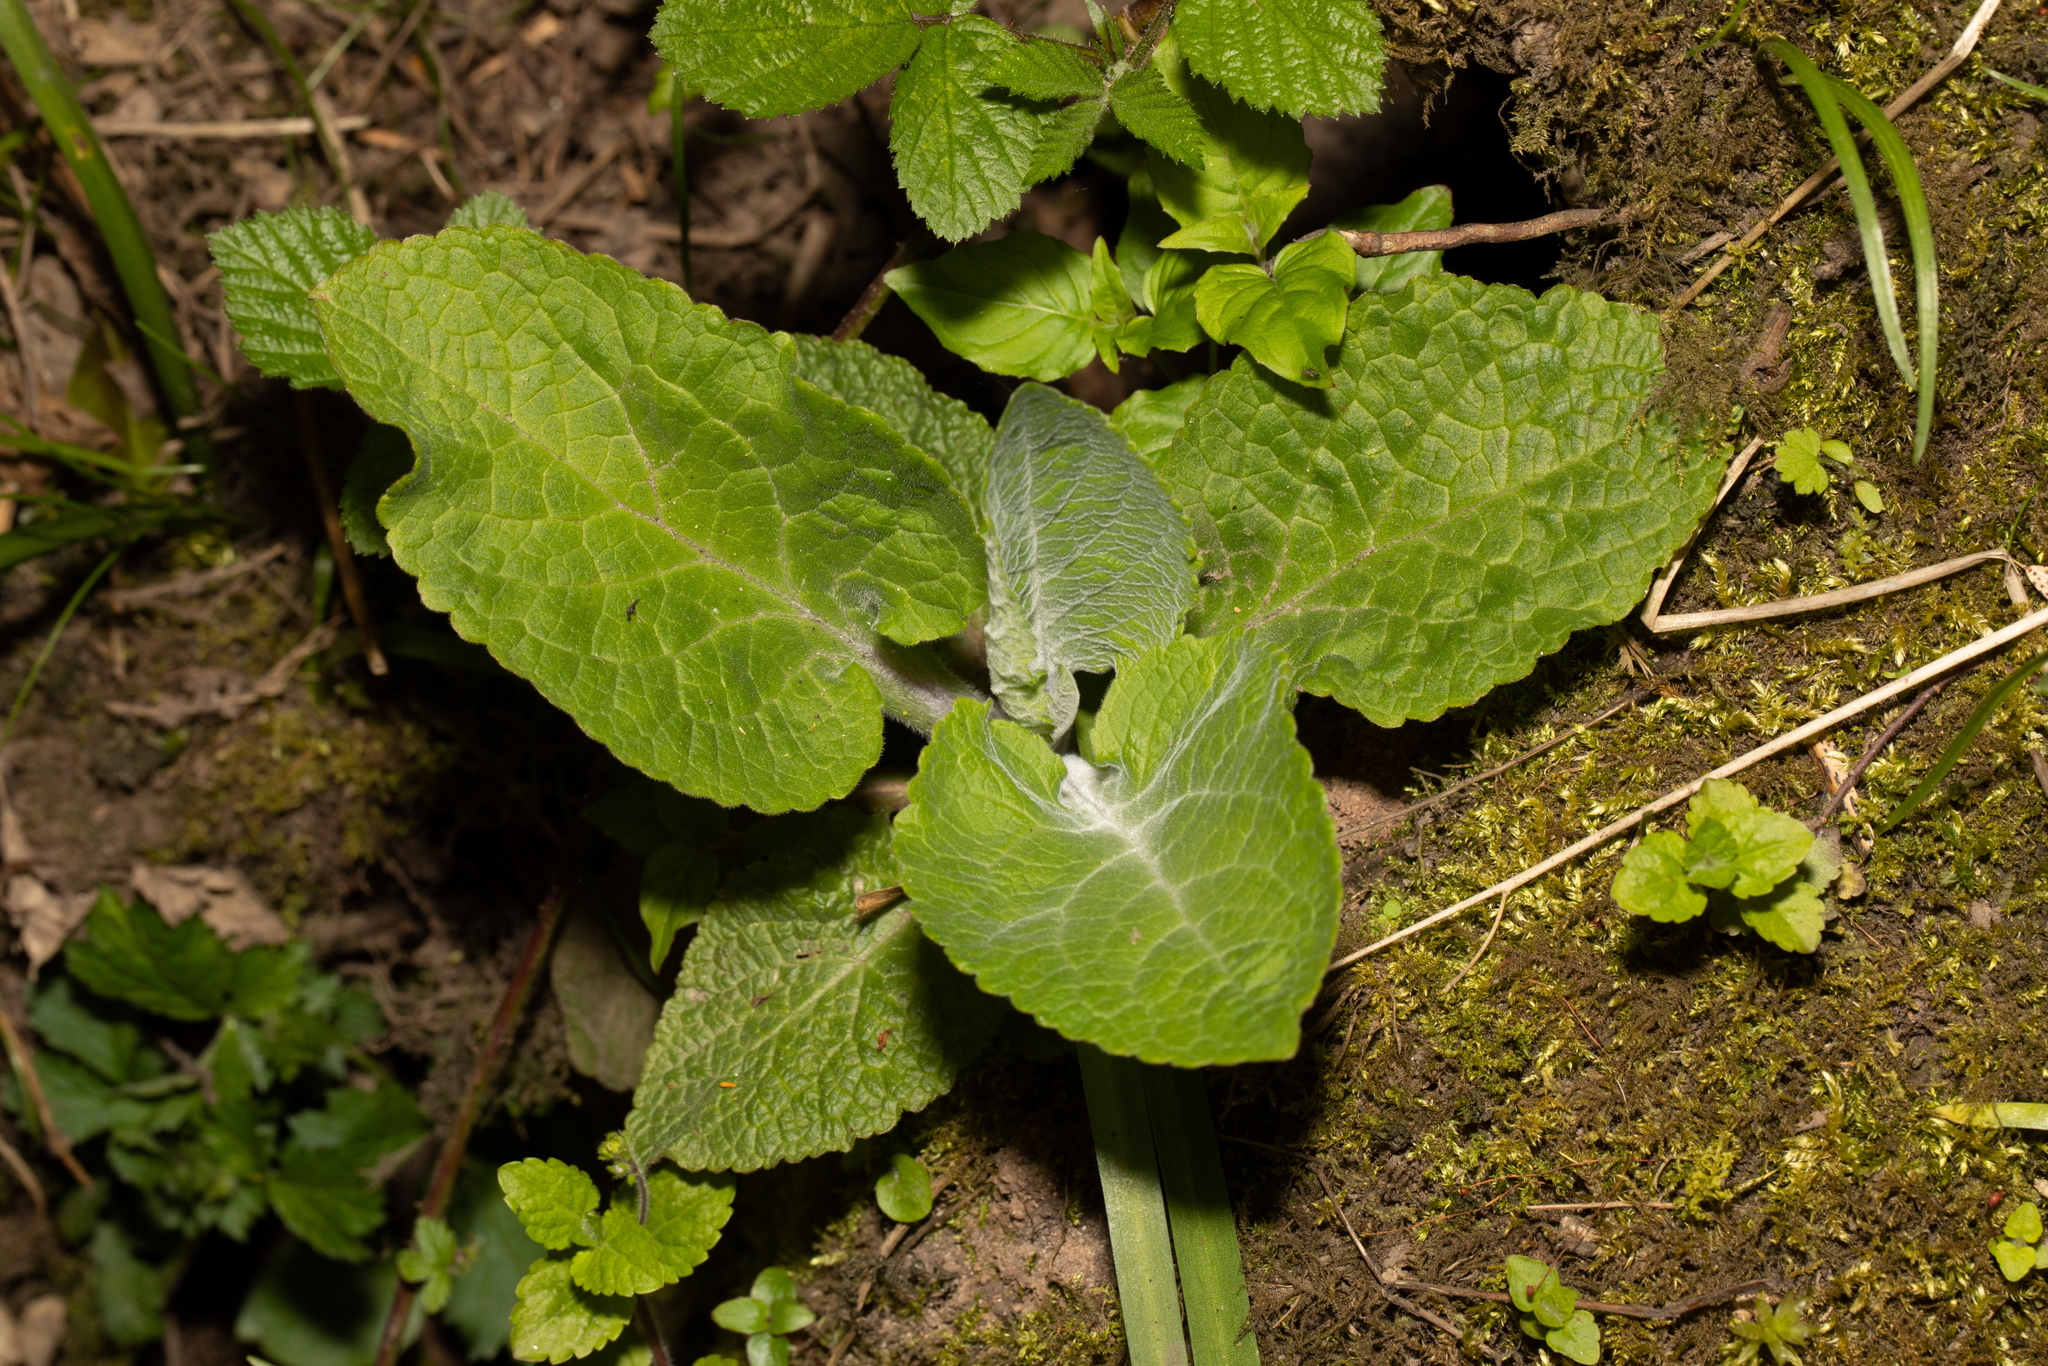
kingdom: Plantae
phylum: Tracheophyta
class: Magnoliopsida
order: Lamiales
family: Plantaginaceae
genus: Digitalis
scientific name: Digitalis purpurea
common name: Foxglove
